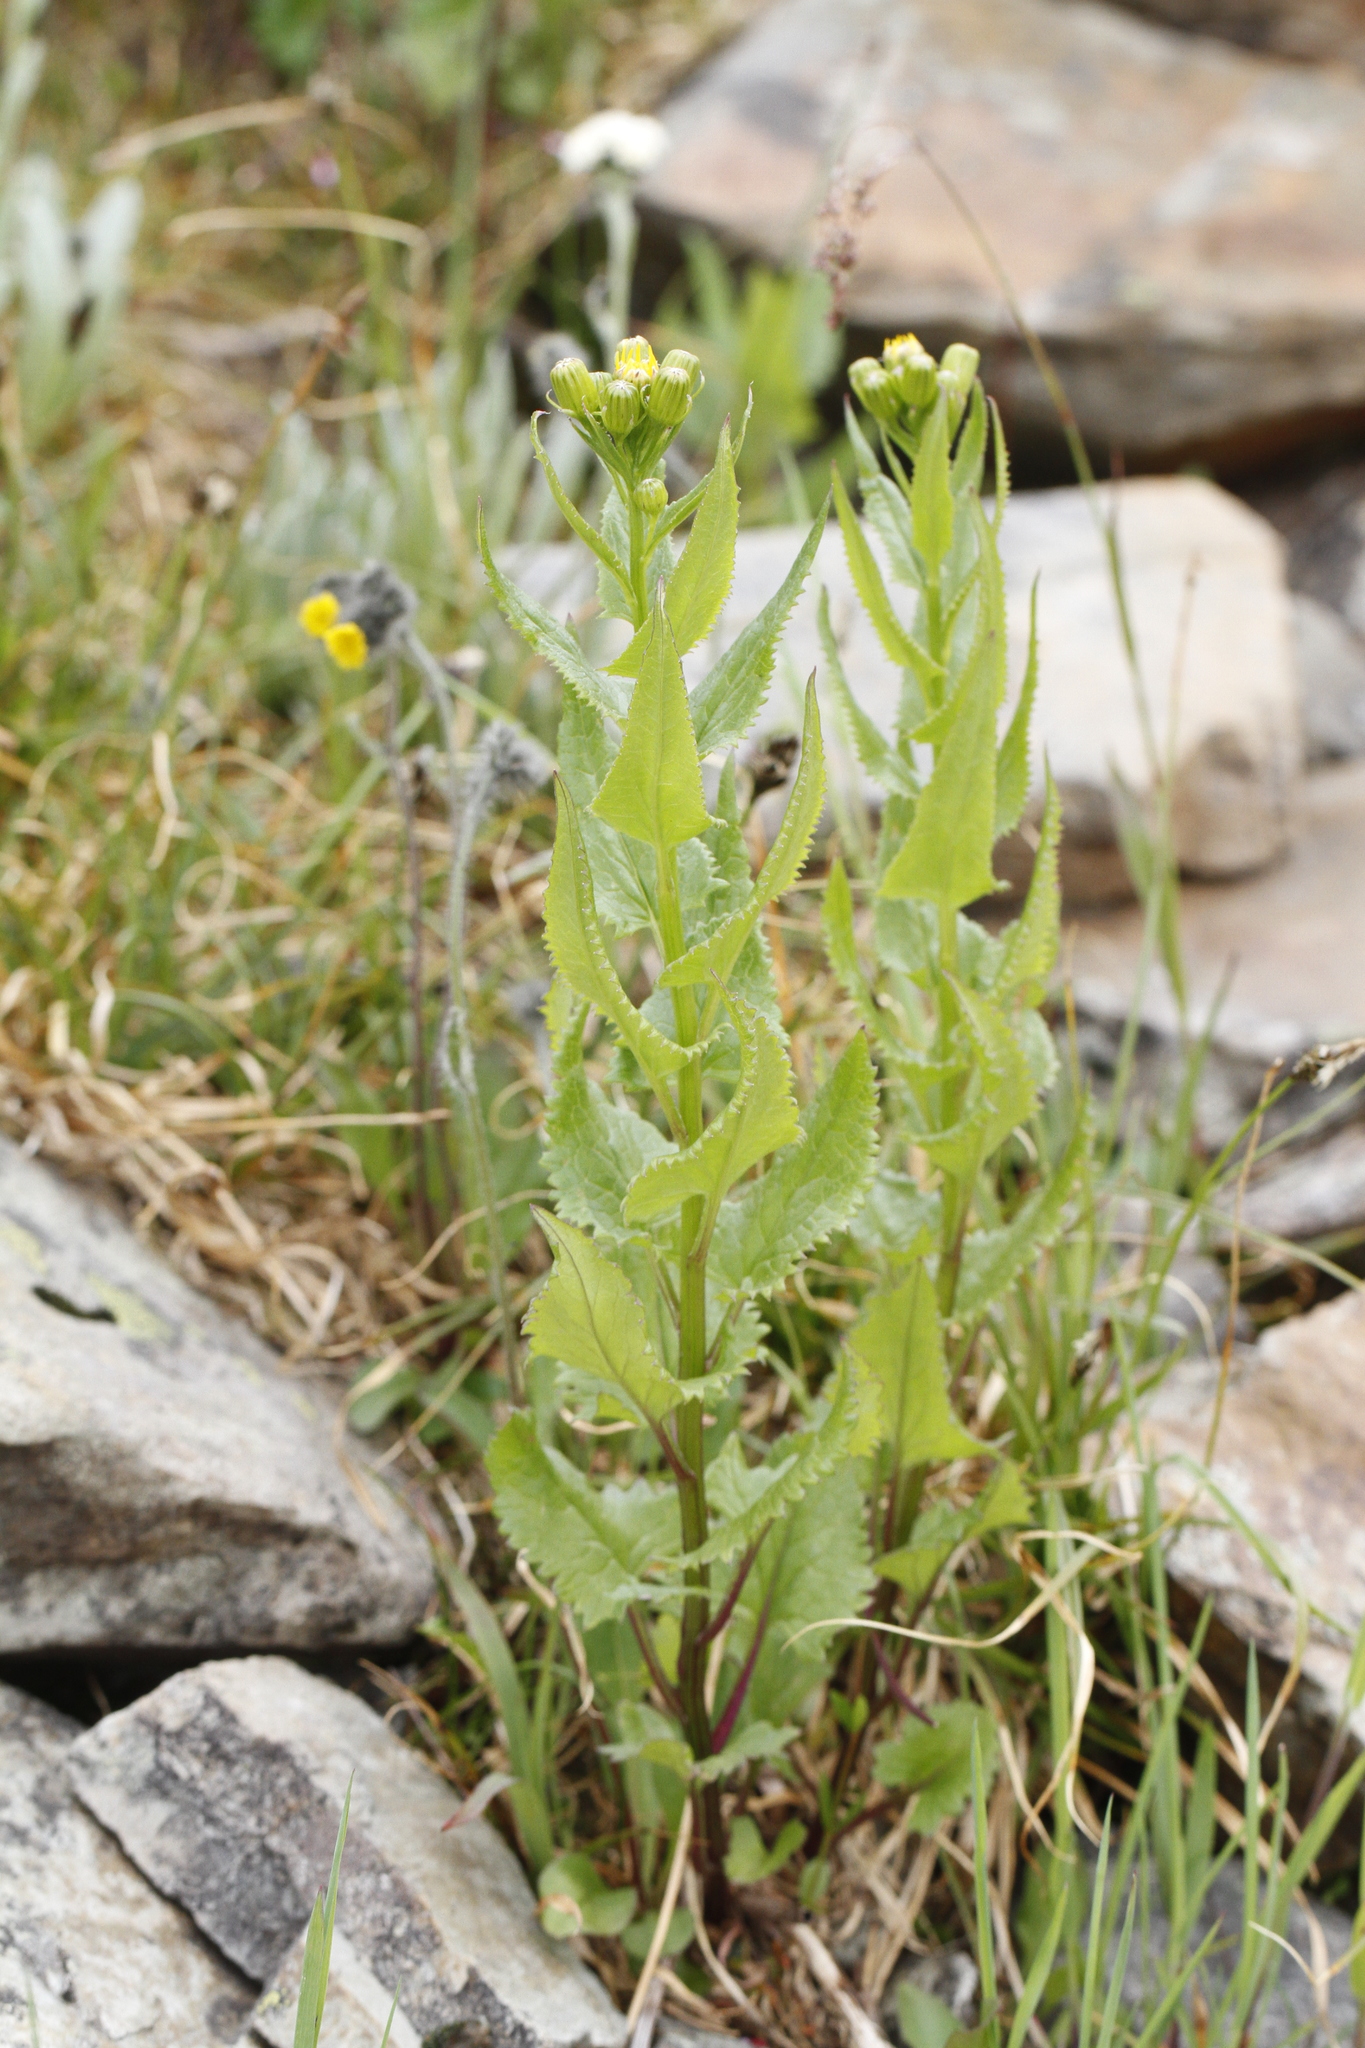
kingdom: Plantae
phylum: Tracheophyta
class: Magnoliopsida
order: Asterales
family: Asteraceae
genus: Senecio
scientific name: Senecio triangularis
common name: Arrowleaf butterweed
